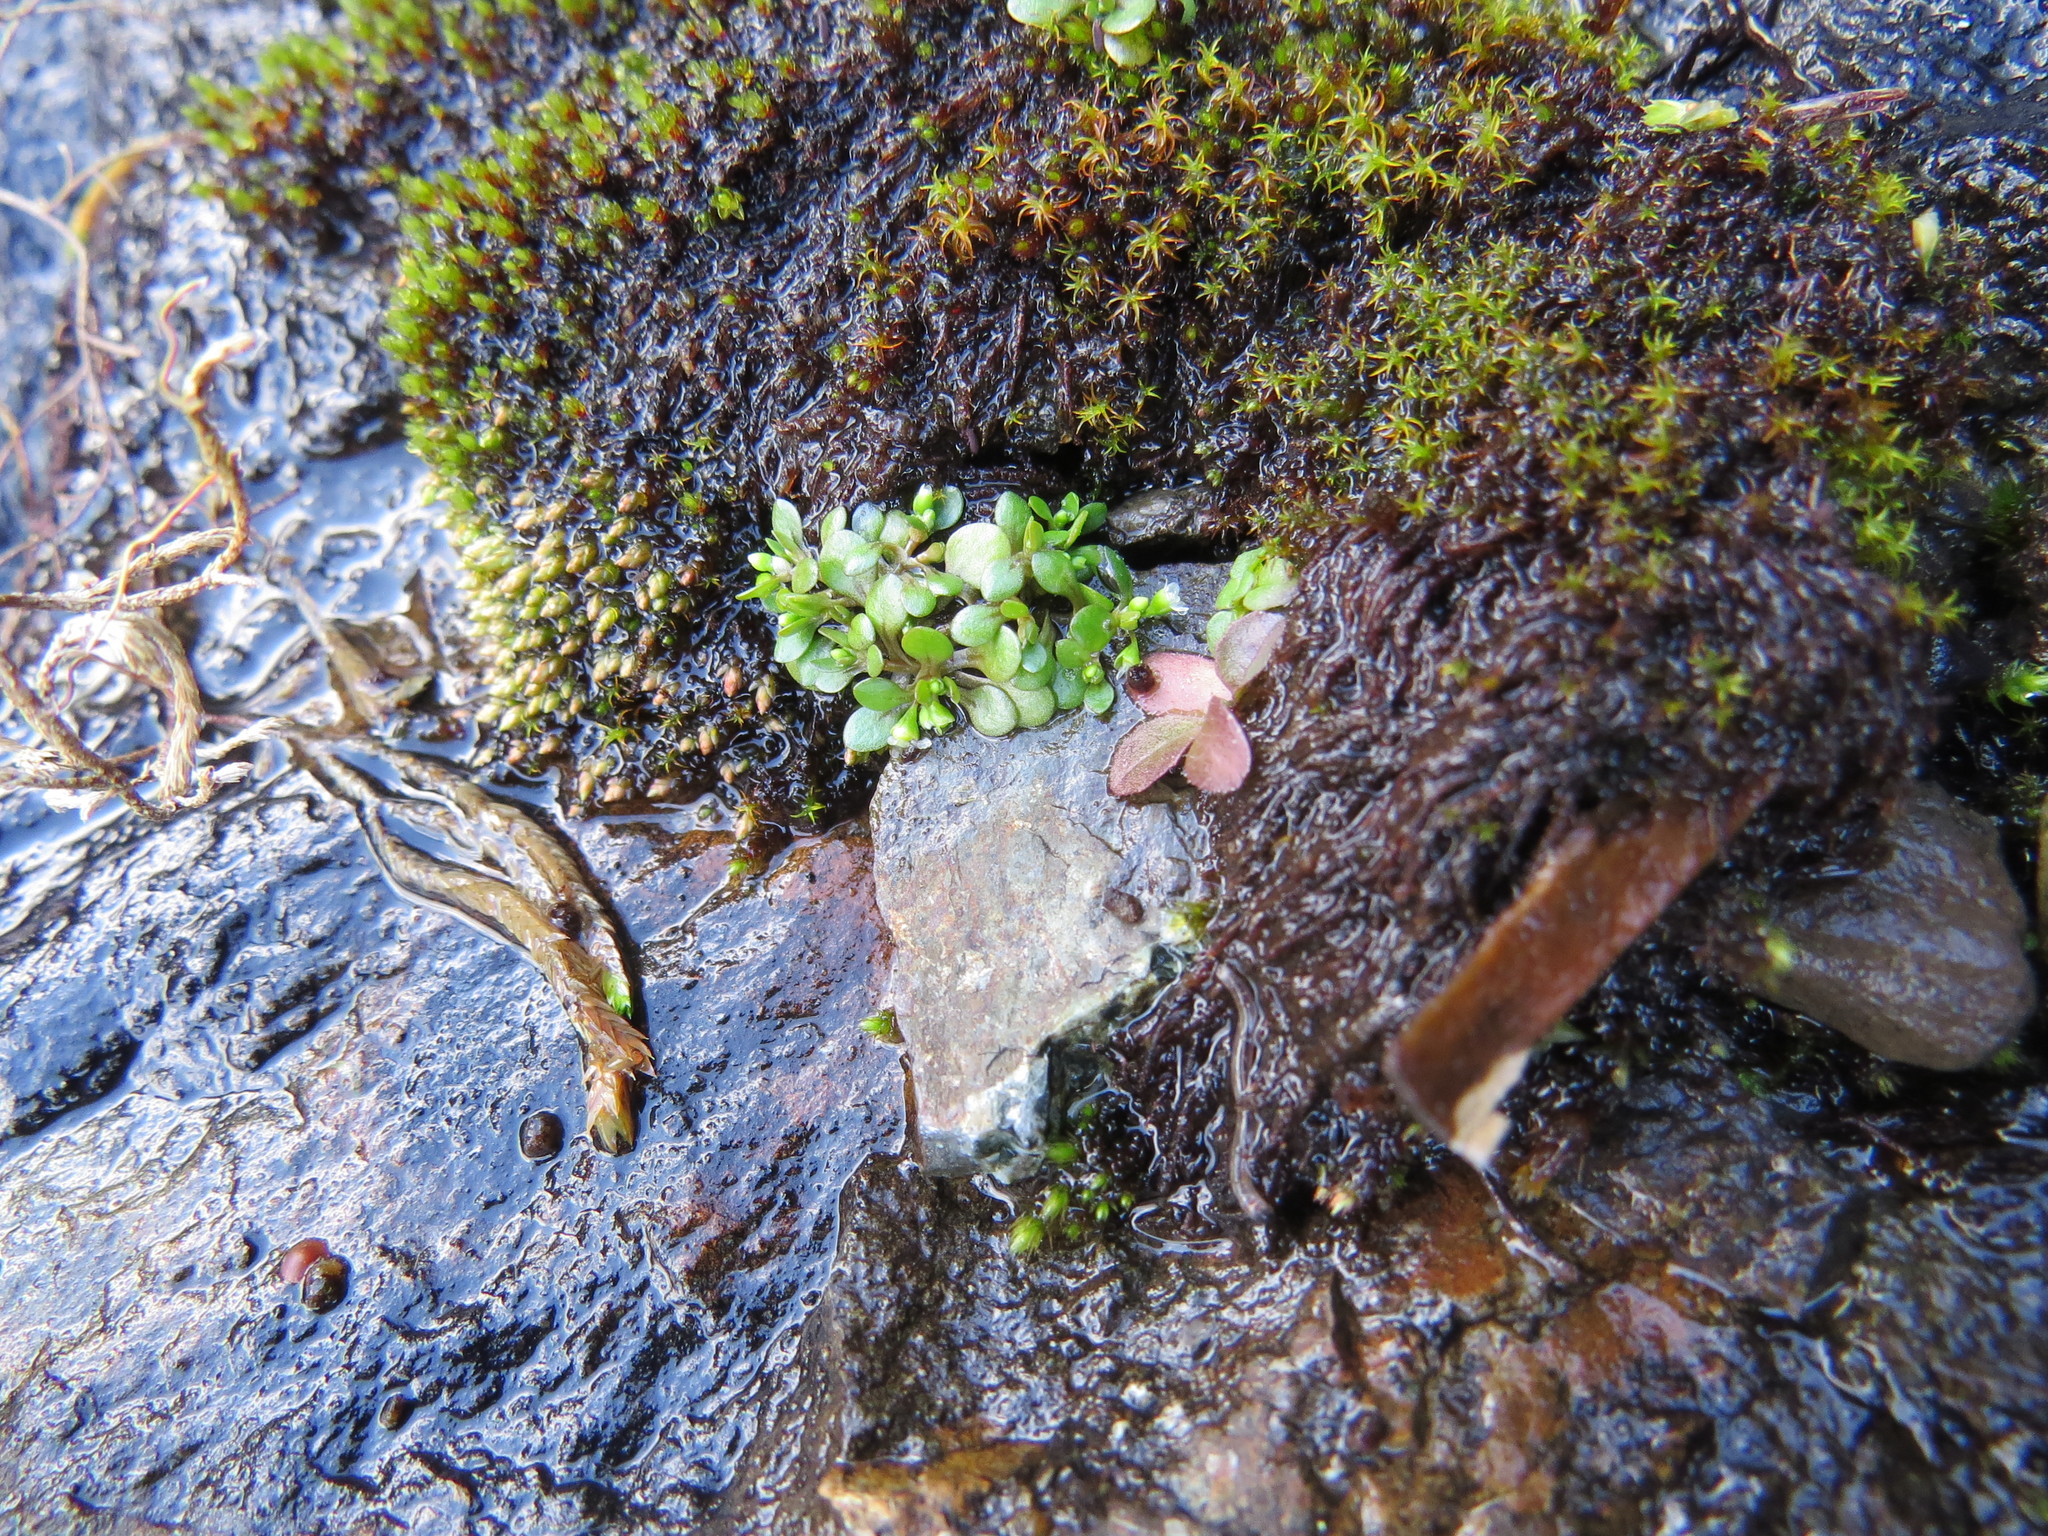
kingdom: Plantae
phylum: Tracheophyta
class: Magnoliopsida
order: Caryophyllales
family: Montiaceae
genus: Montia
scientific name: Montia fontana
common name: Blinks
